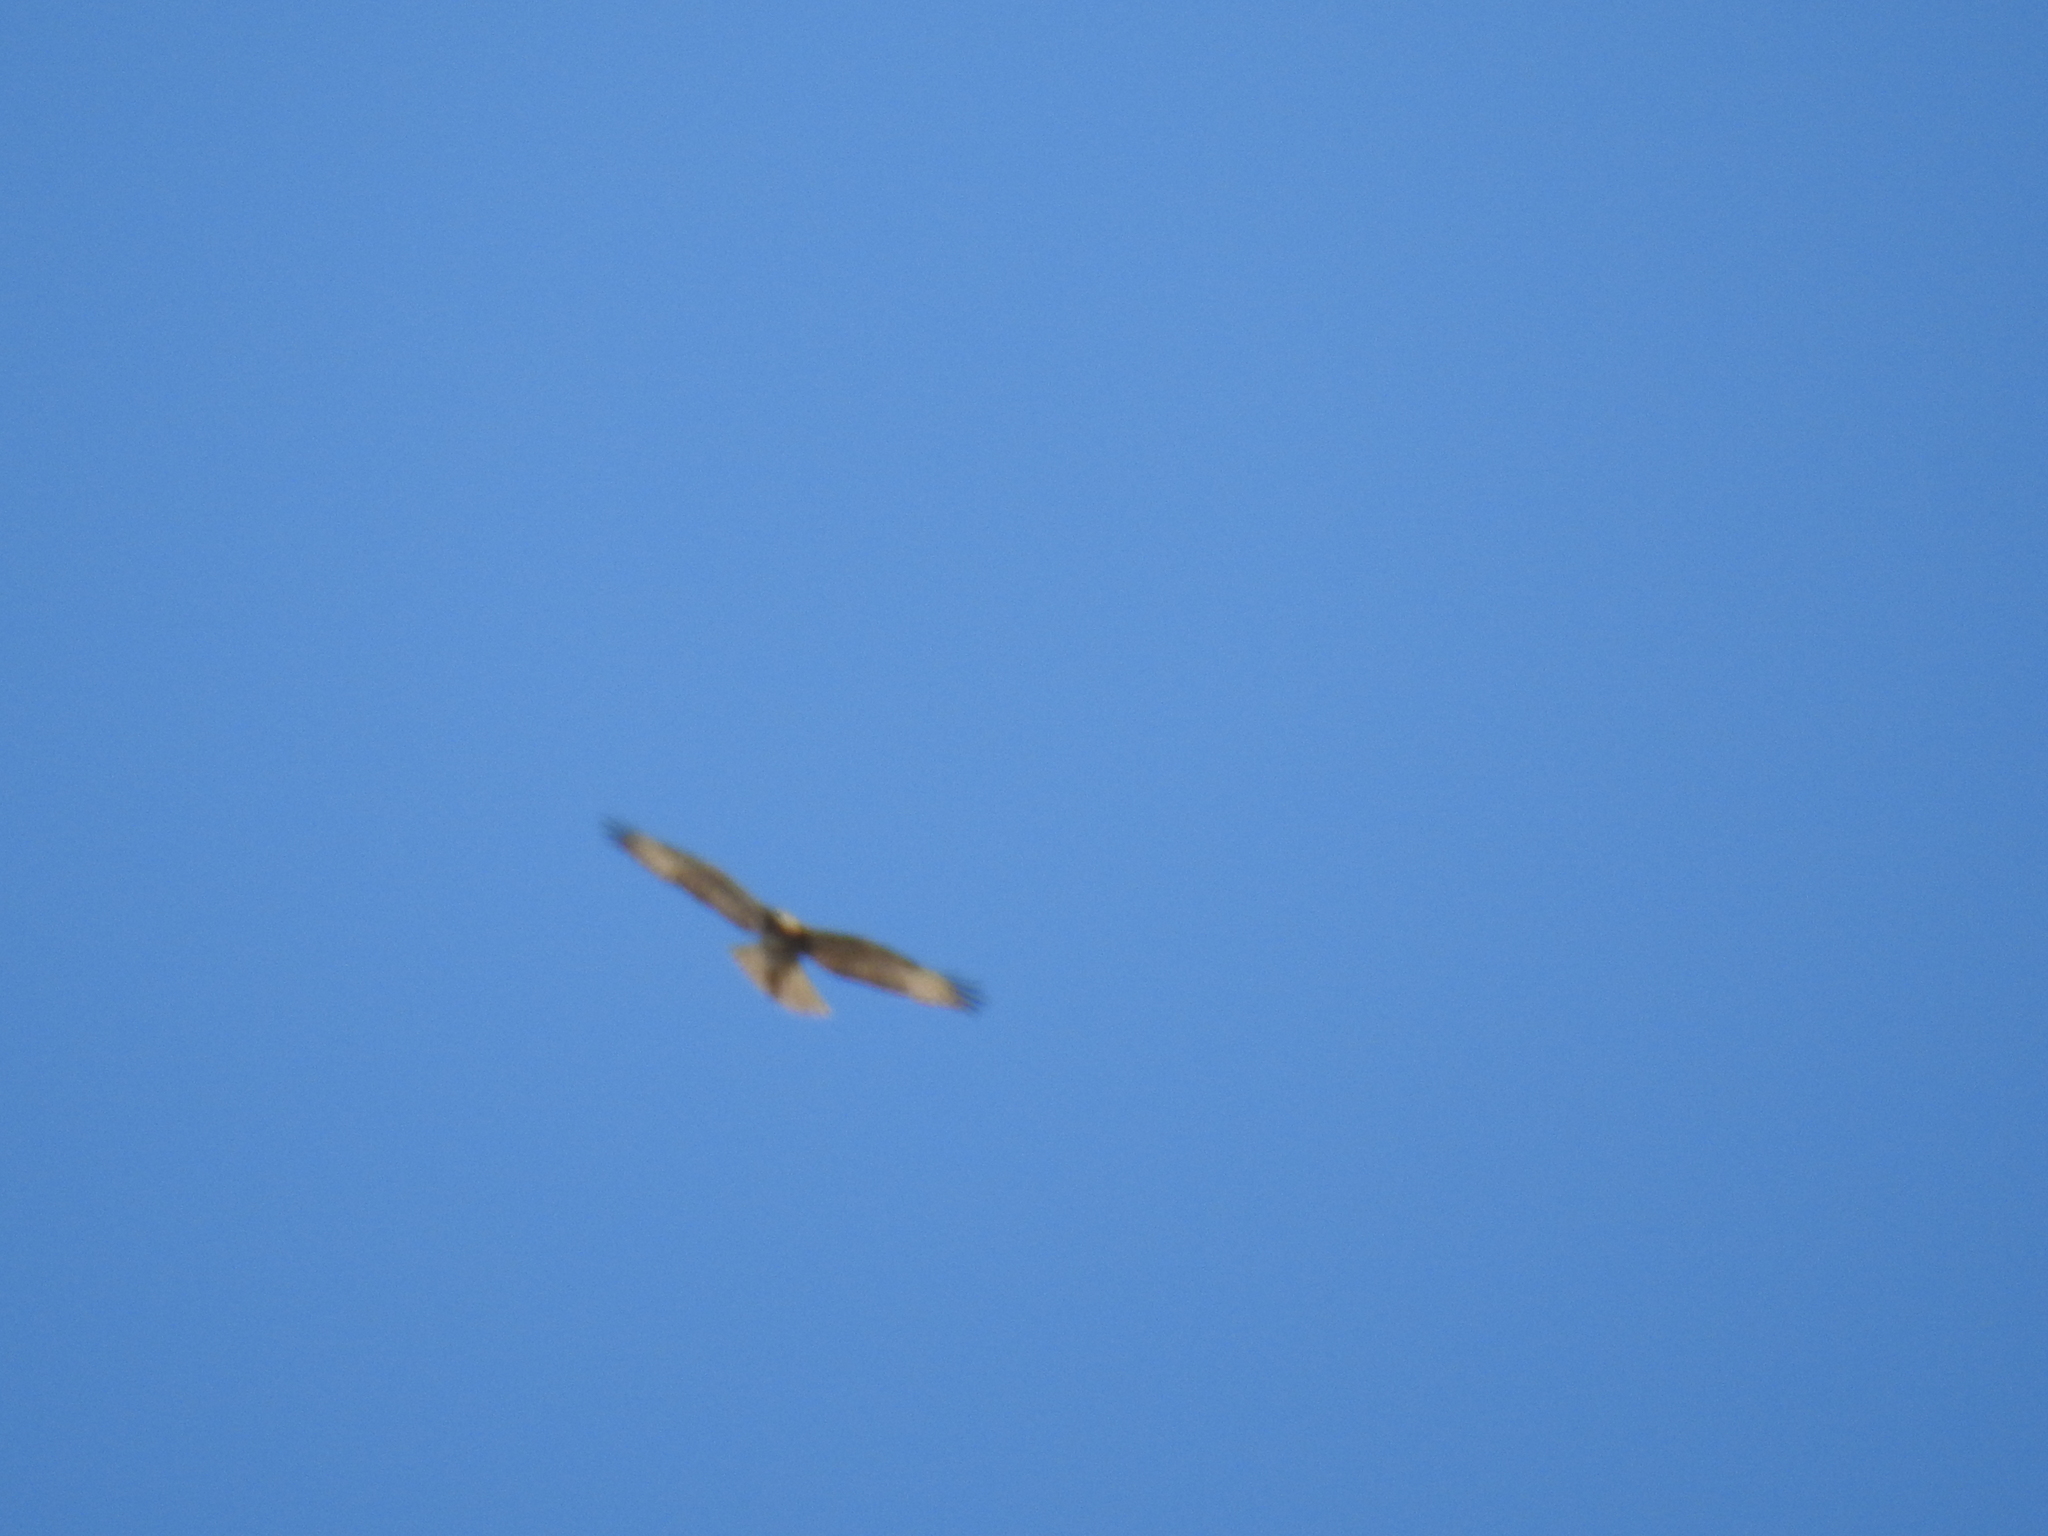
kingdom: Animalia
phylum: Chordata
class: Aves
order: Accipitriformes
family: Accipitridae
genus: Buteo
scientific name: Buteo jamaicensis
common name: Red-tailed hawk
